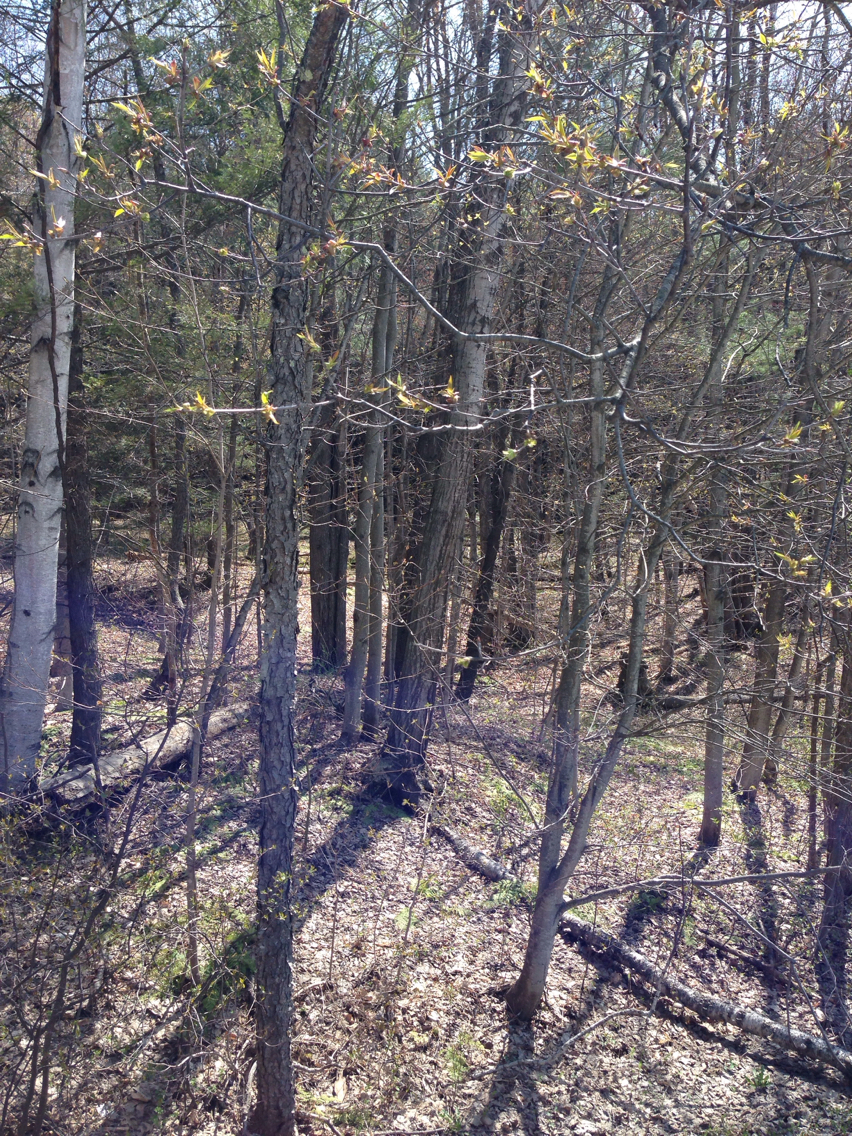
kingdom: Plantae
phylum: Tracheophyta
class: Magnoliopsida
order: Rosales
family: Rosaceae
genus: Prunus
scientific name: Prunus serotina
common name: Black cherry
